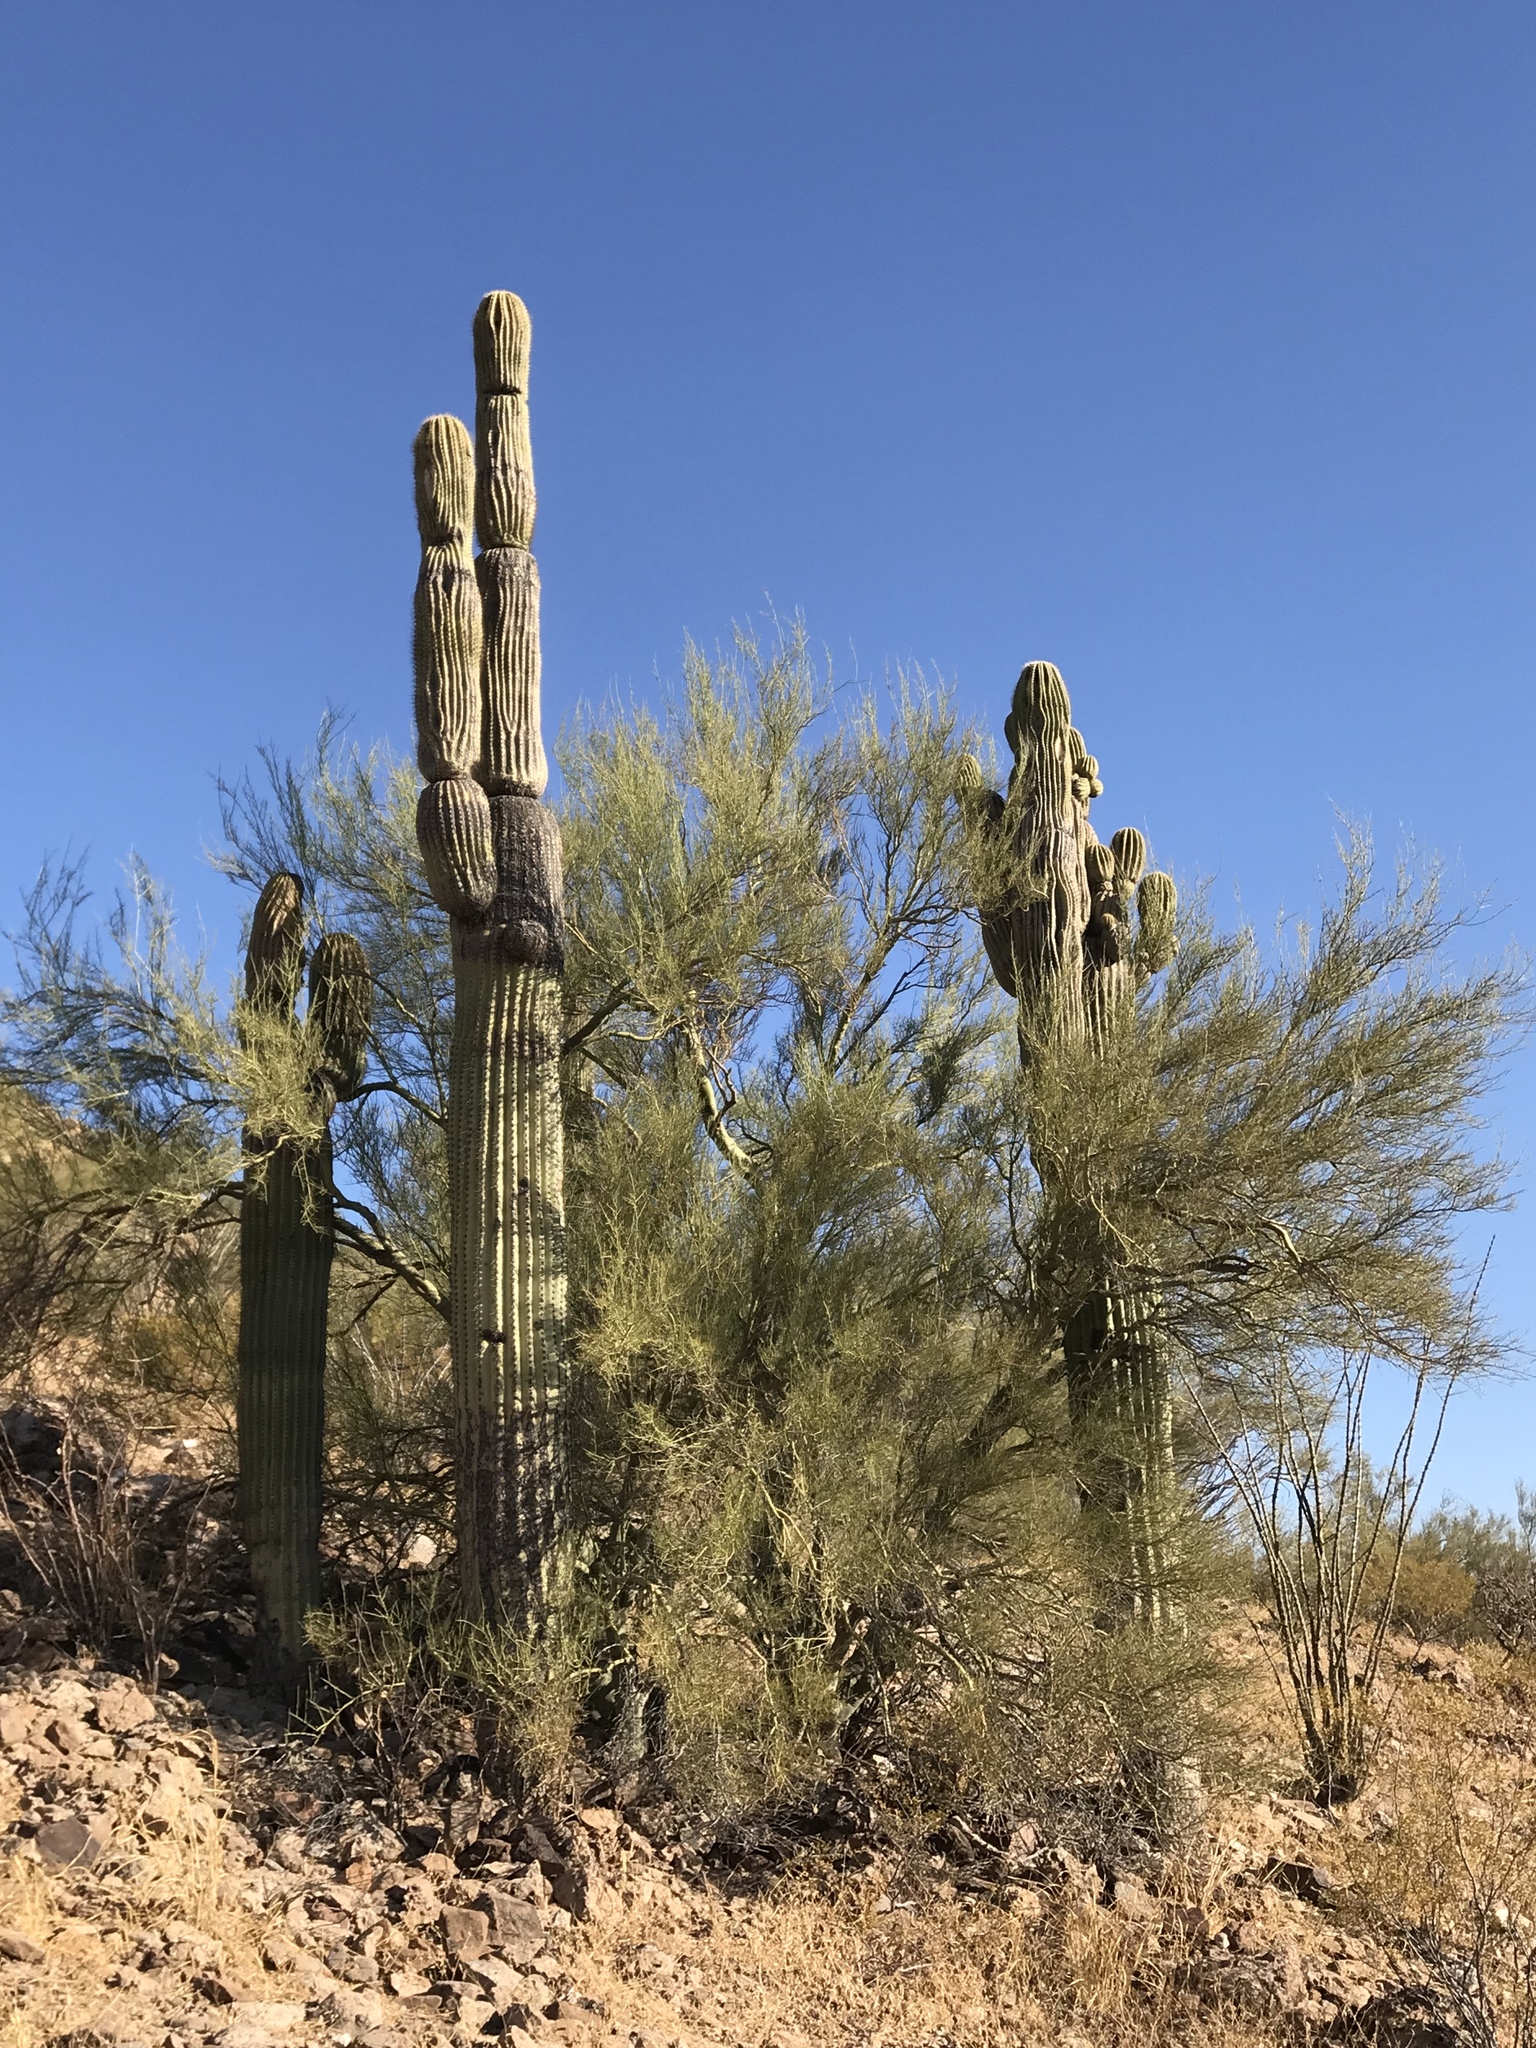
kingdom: Plantae
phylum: Tracheophyta
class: Magnoliopsida
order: Caryophyllales
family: Cactaceae
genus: Carnegiea
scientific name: Carnegiea gigantea
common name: Saguaro
